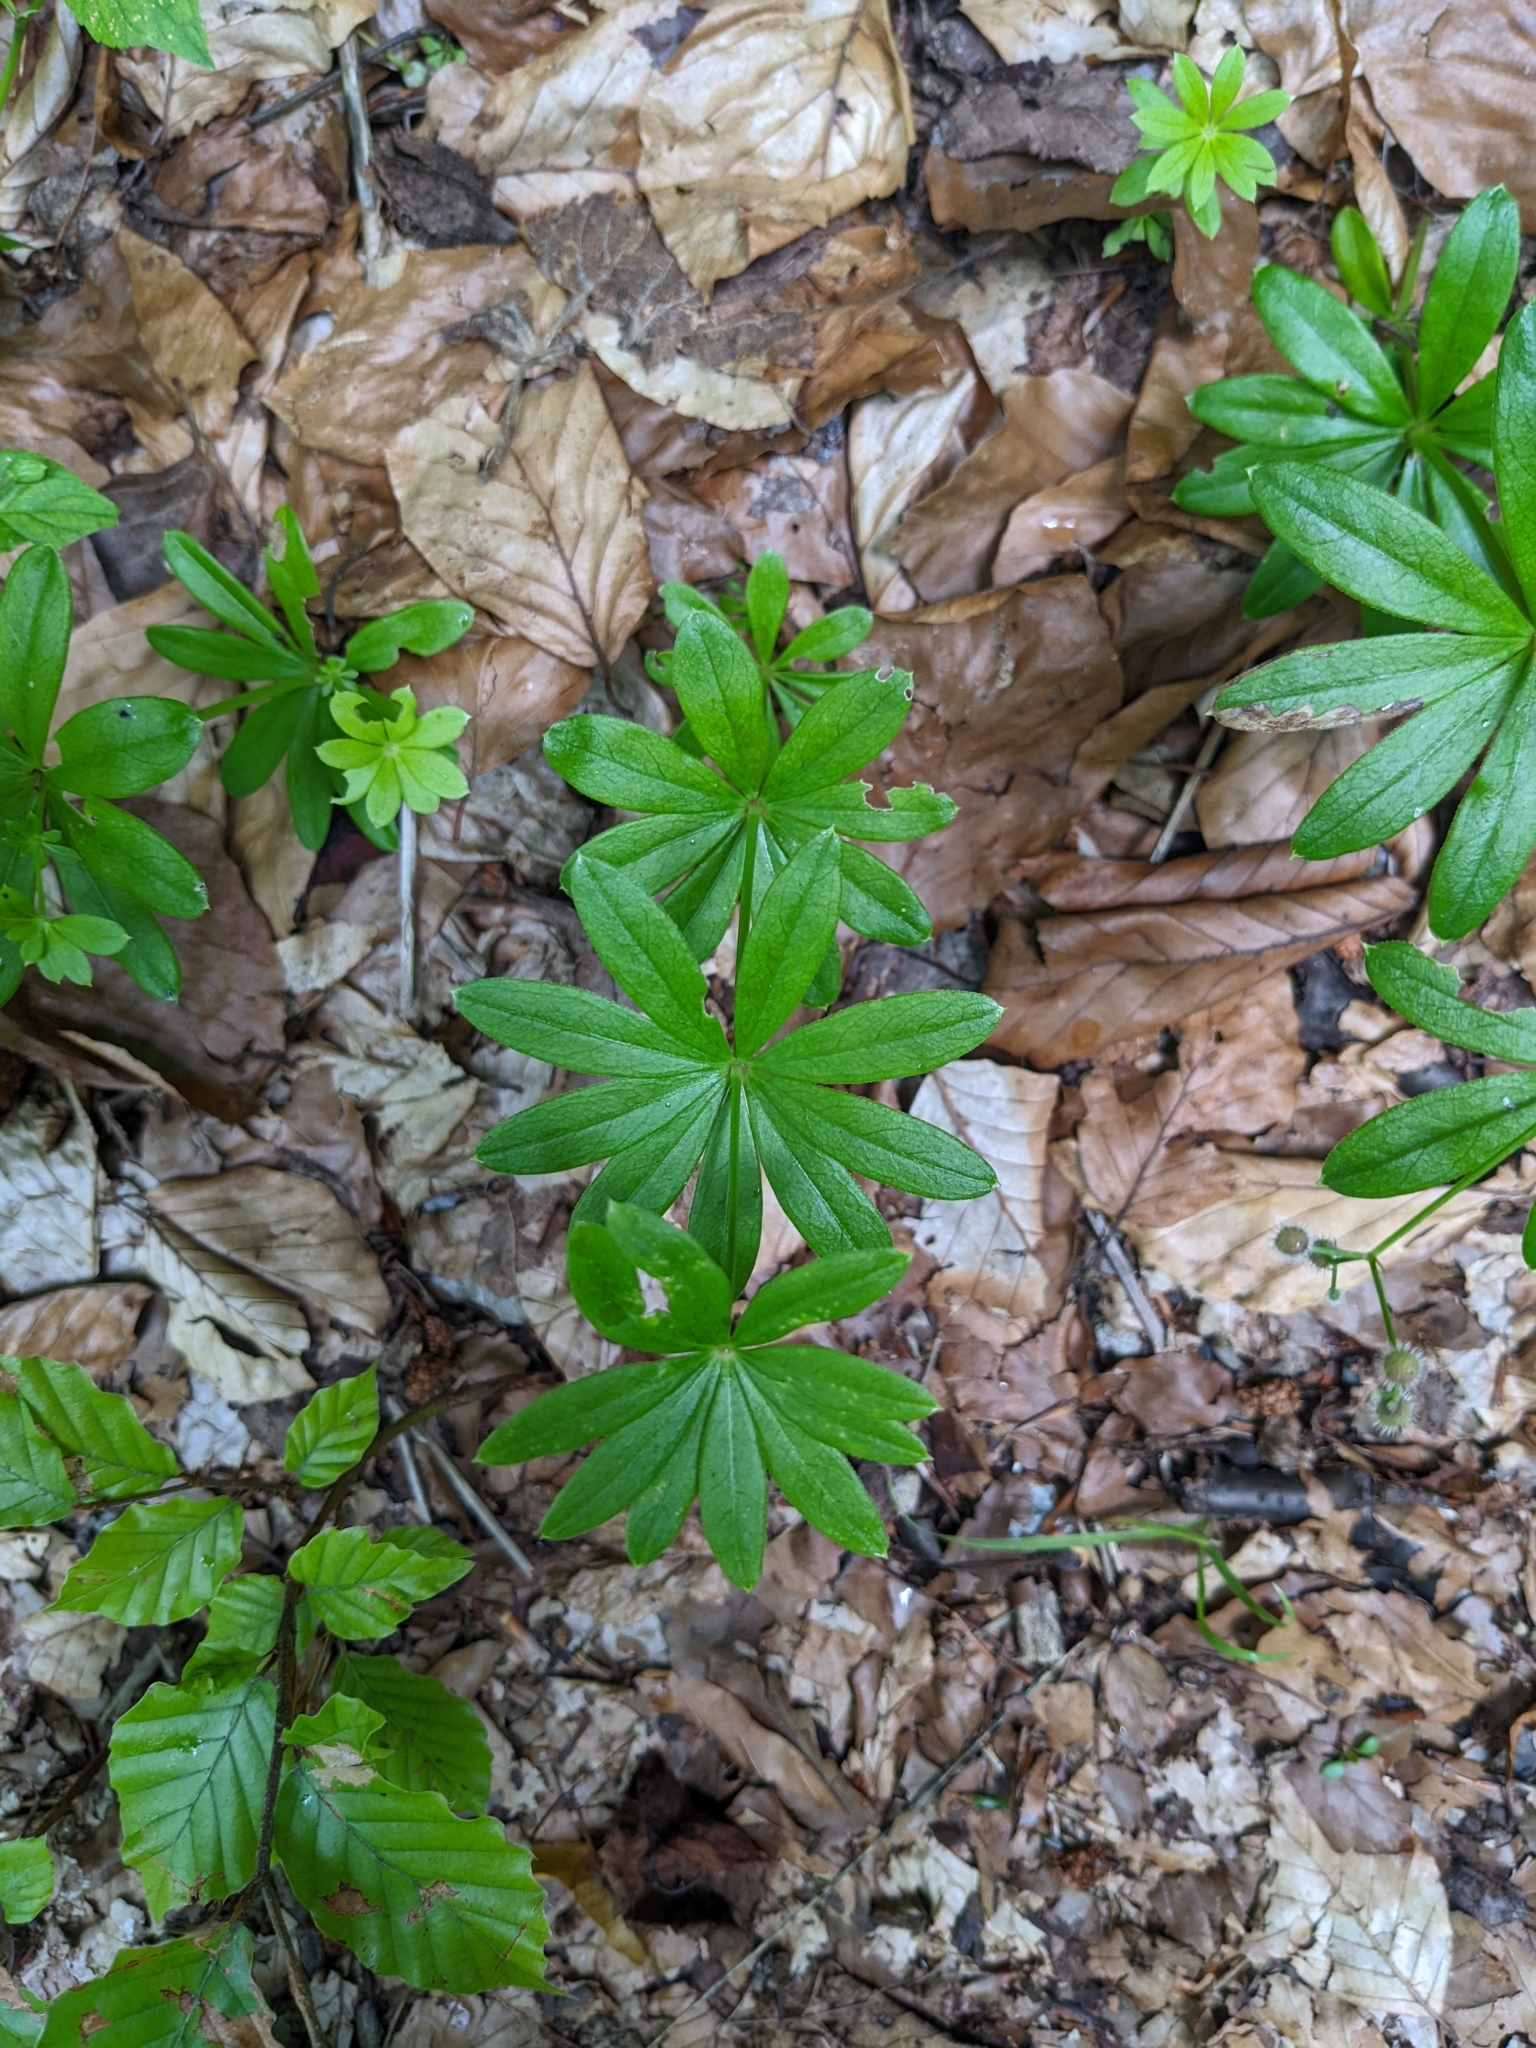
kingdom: Plantae
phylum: Tracheophyta
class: Magnoliopsida
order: Gentianales
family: Rubiaceae
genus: Galium
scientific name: Galium odoratum
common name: Sweet woodruff
